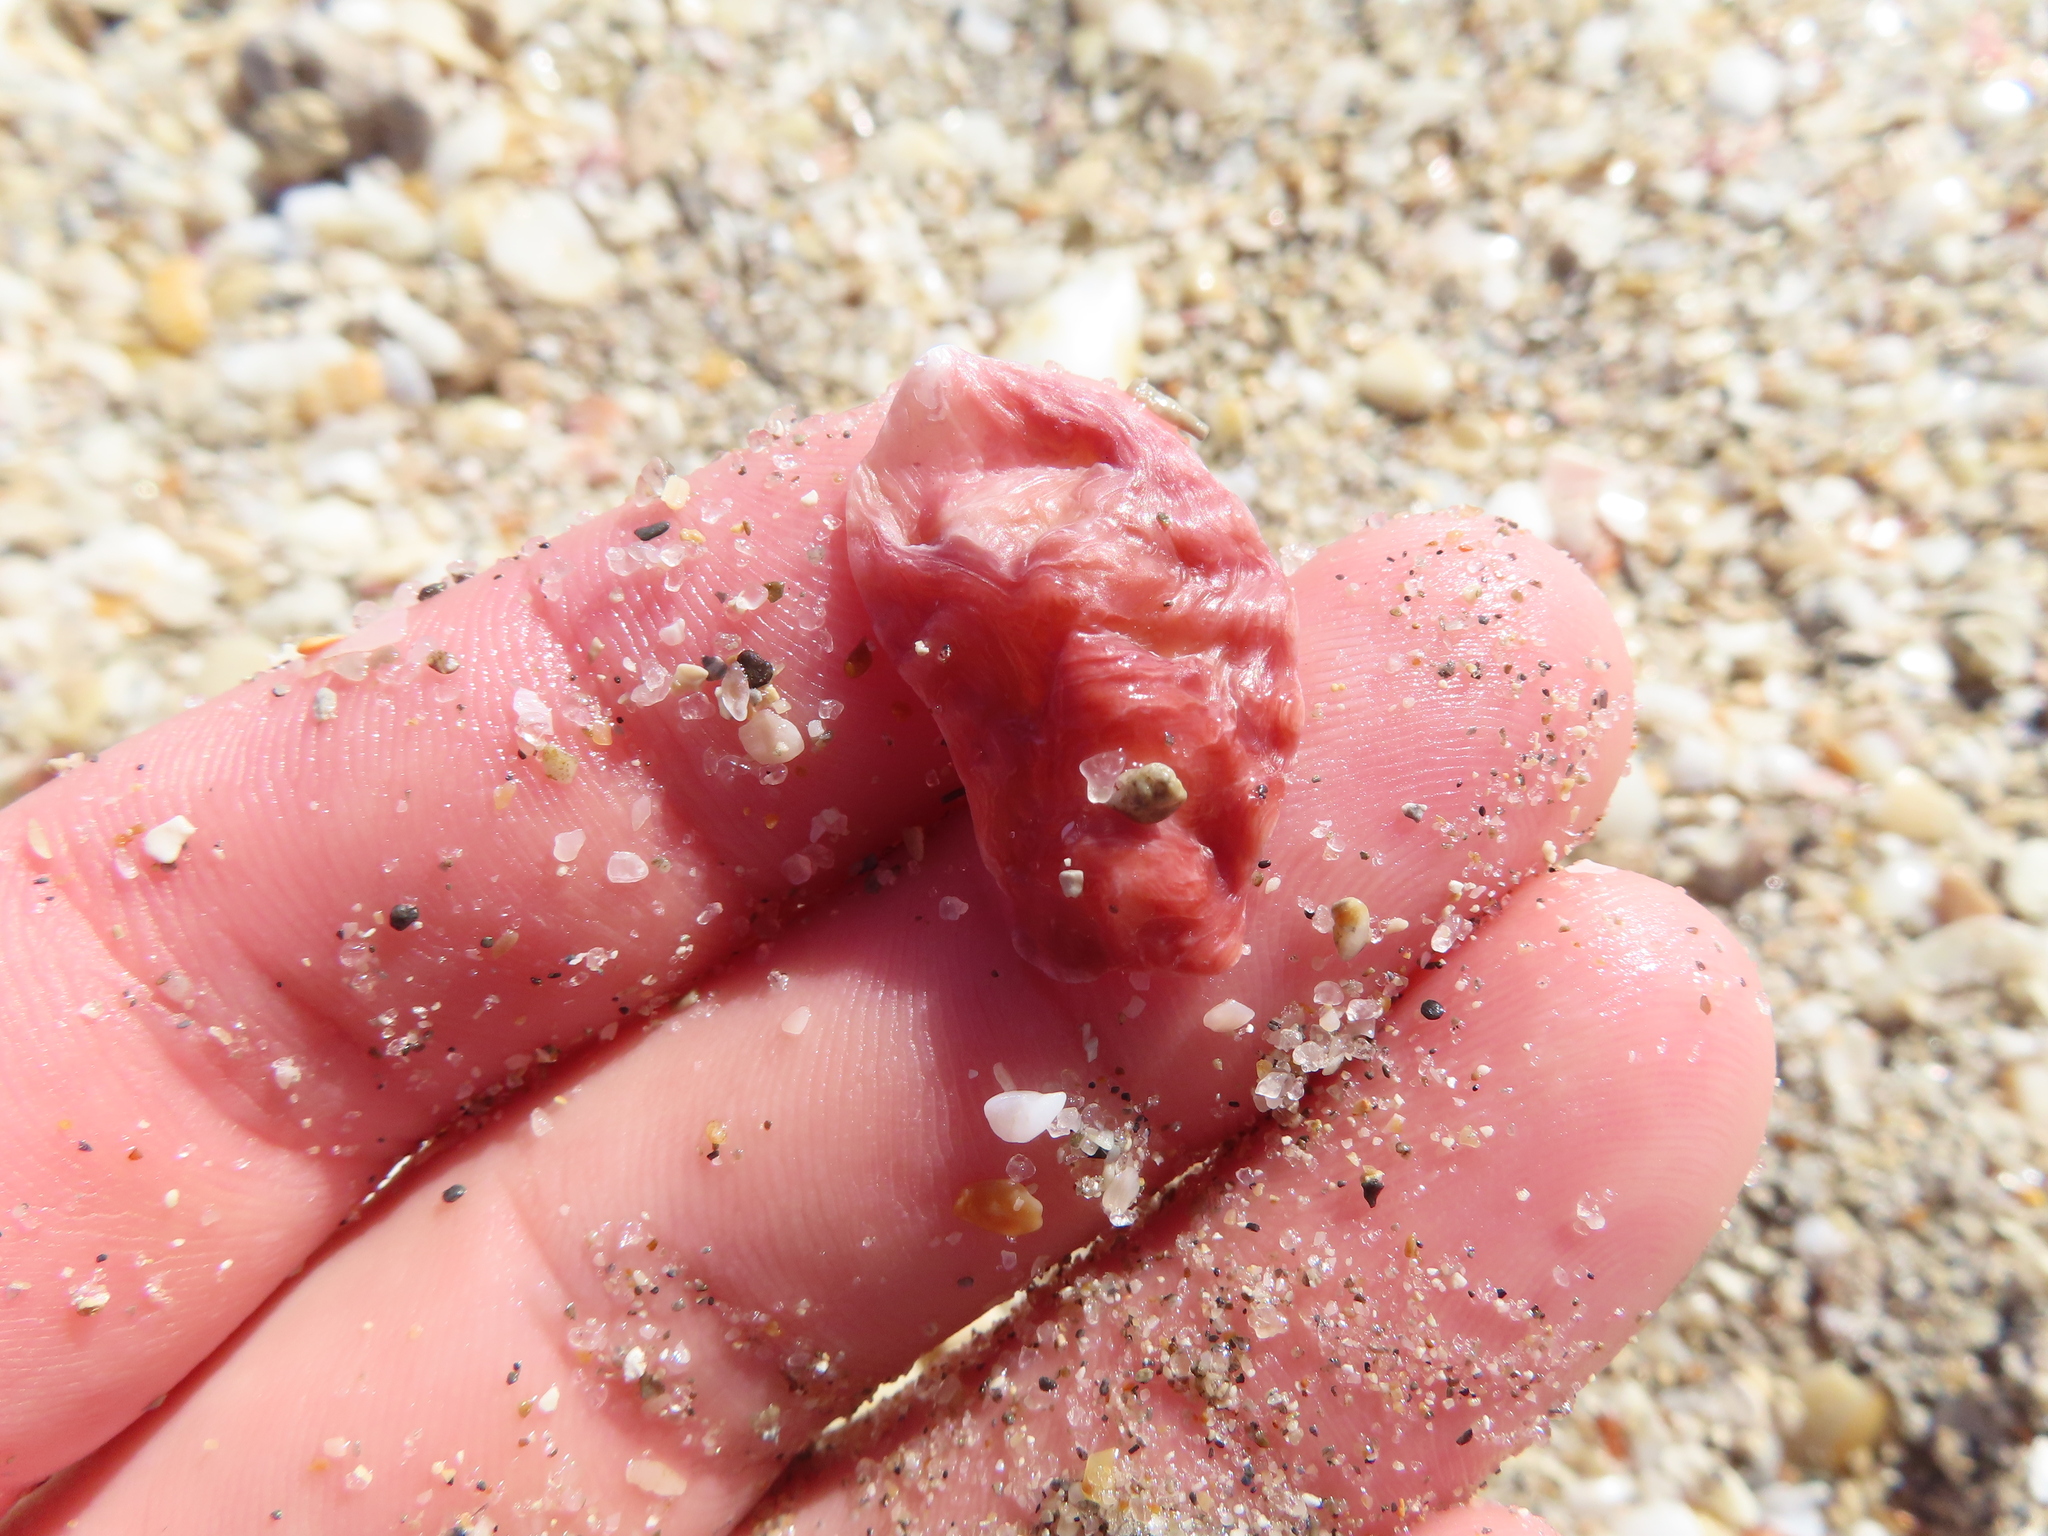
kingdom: Animalia
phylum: Mollusca
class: Bivalvia
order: Ostreida
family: Ostreidae
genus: Dendostrea
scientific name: Dendostrea frons
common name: Frond oyster
